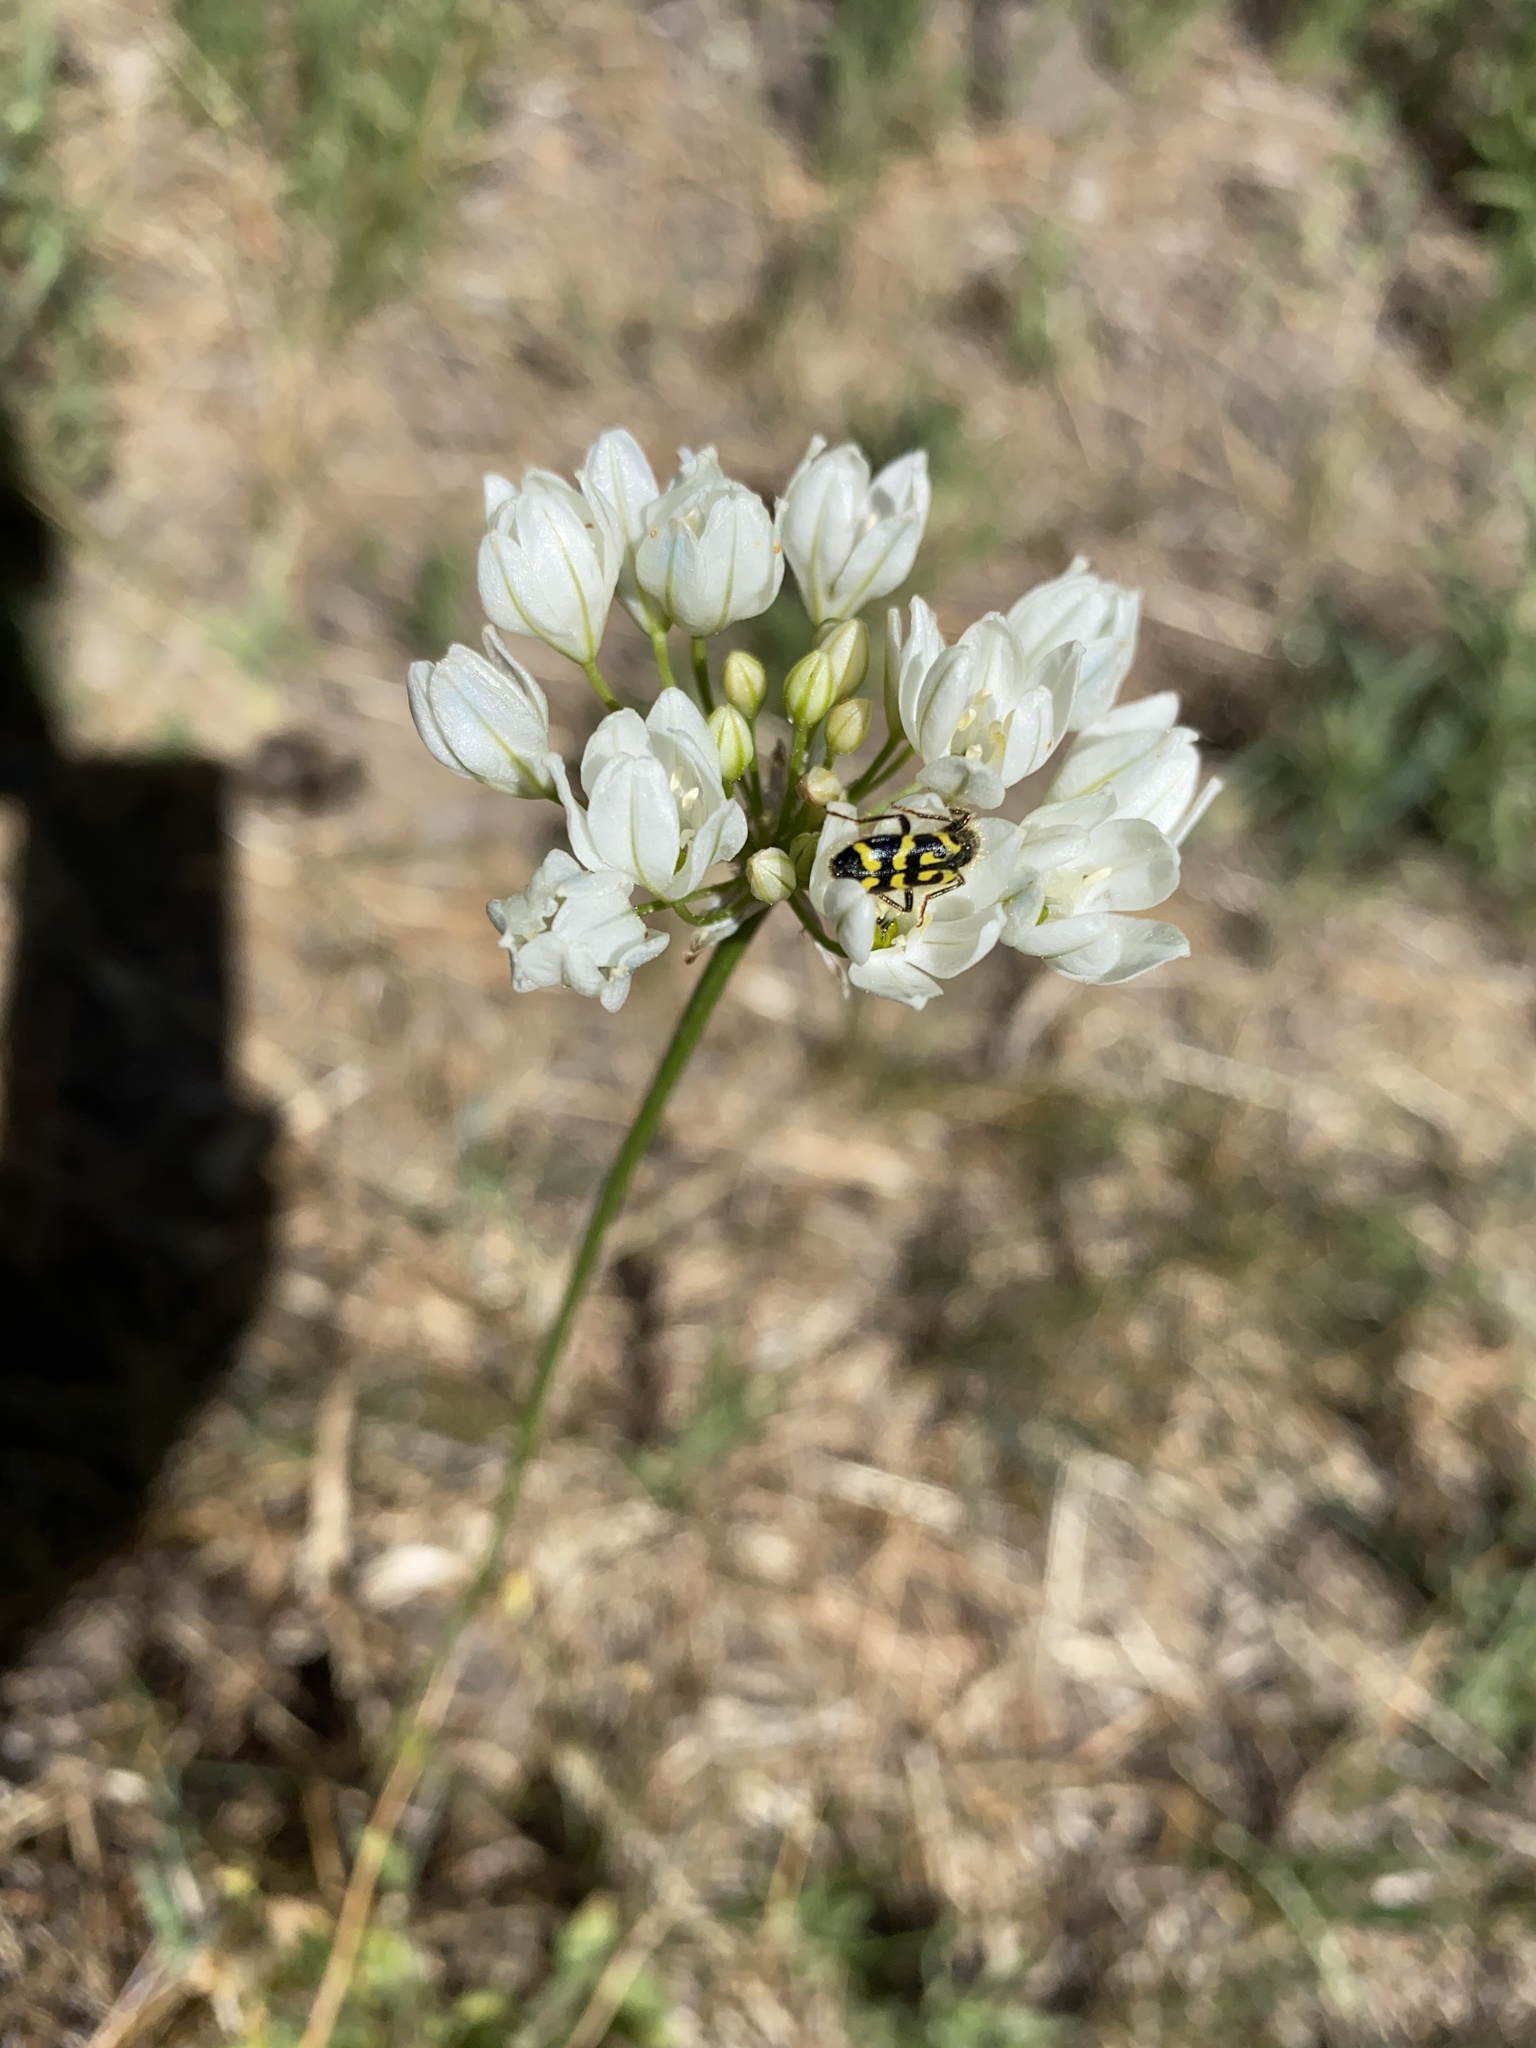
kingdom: Animalia
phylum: Arthropoda
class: Insecta
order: Coleoptera
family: Cleridae
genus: Trichodes
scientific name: Trichodes ornatus
